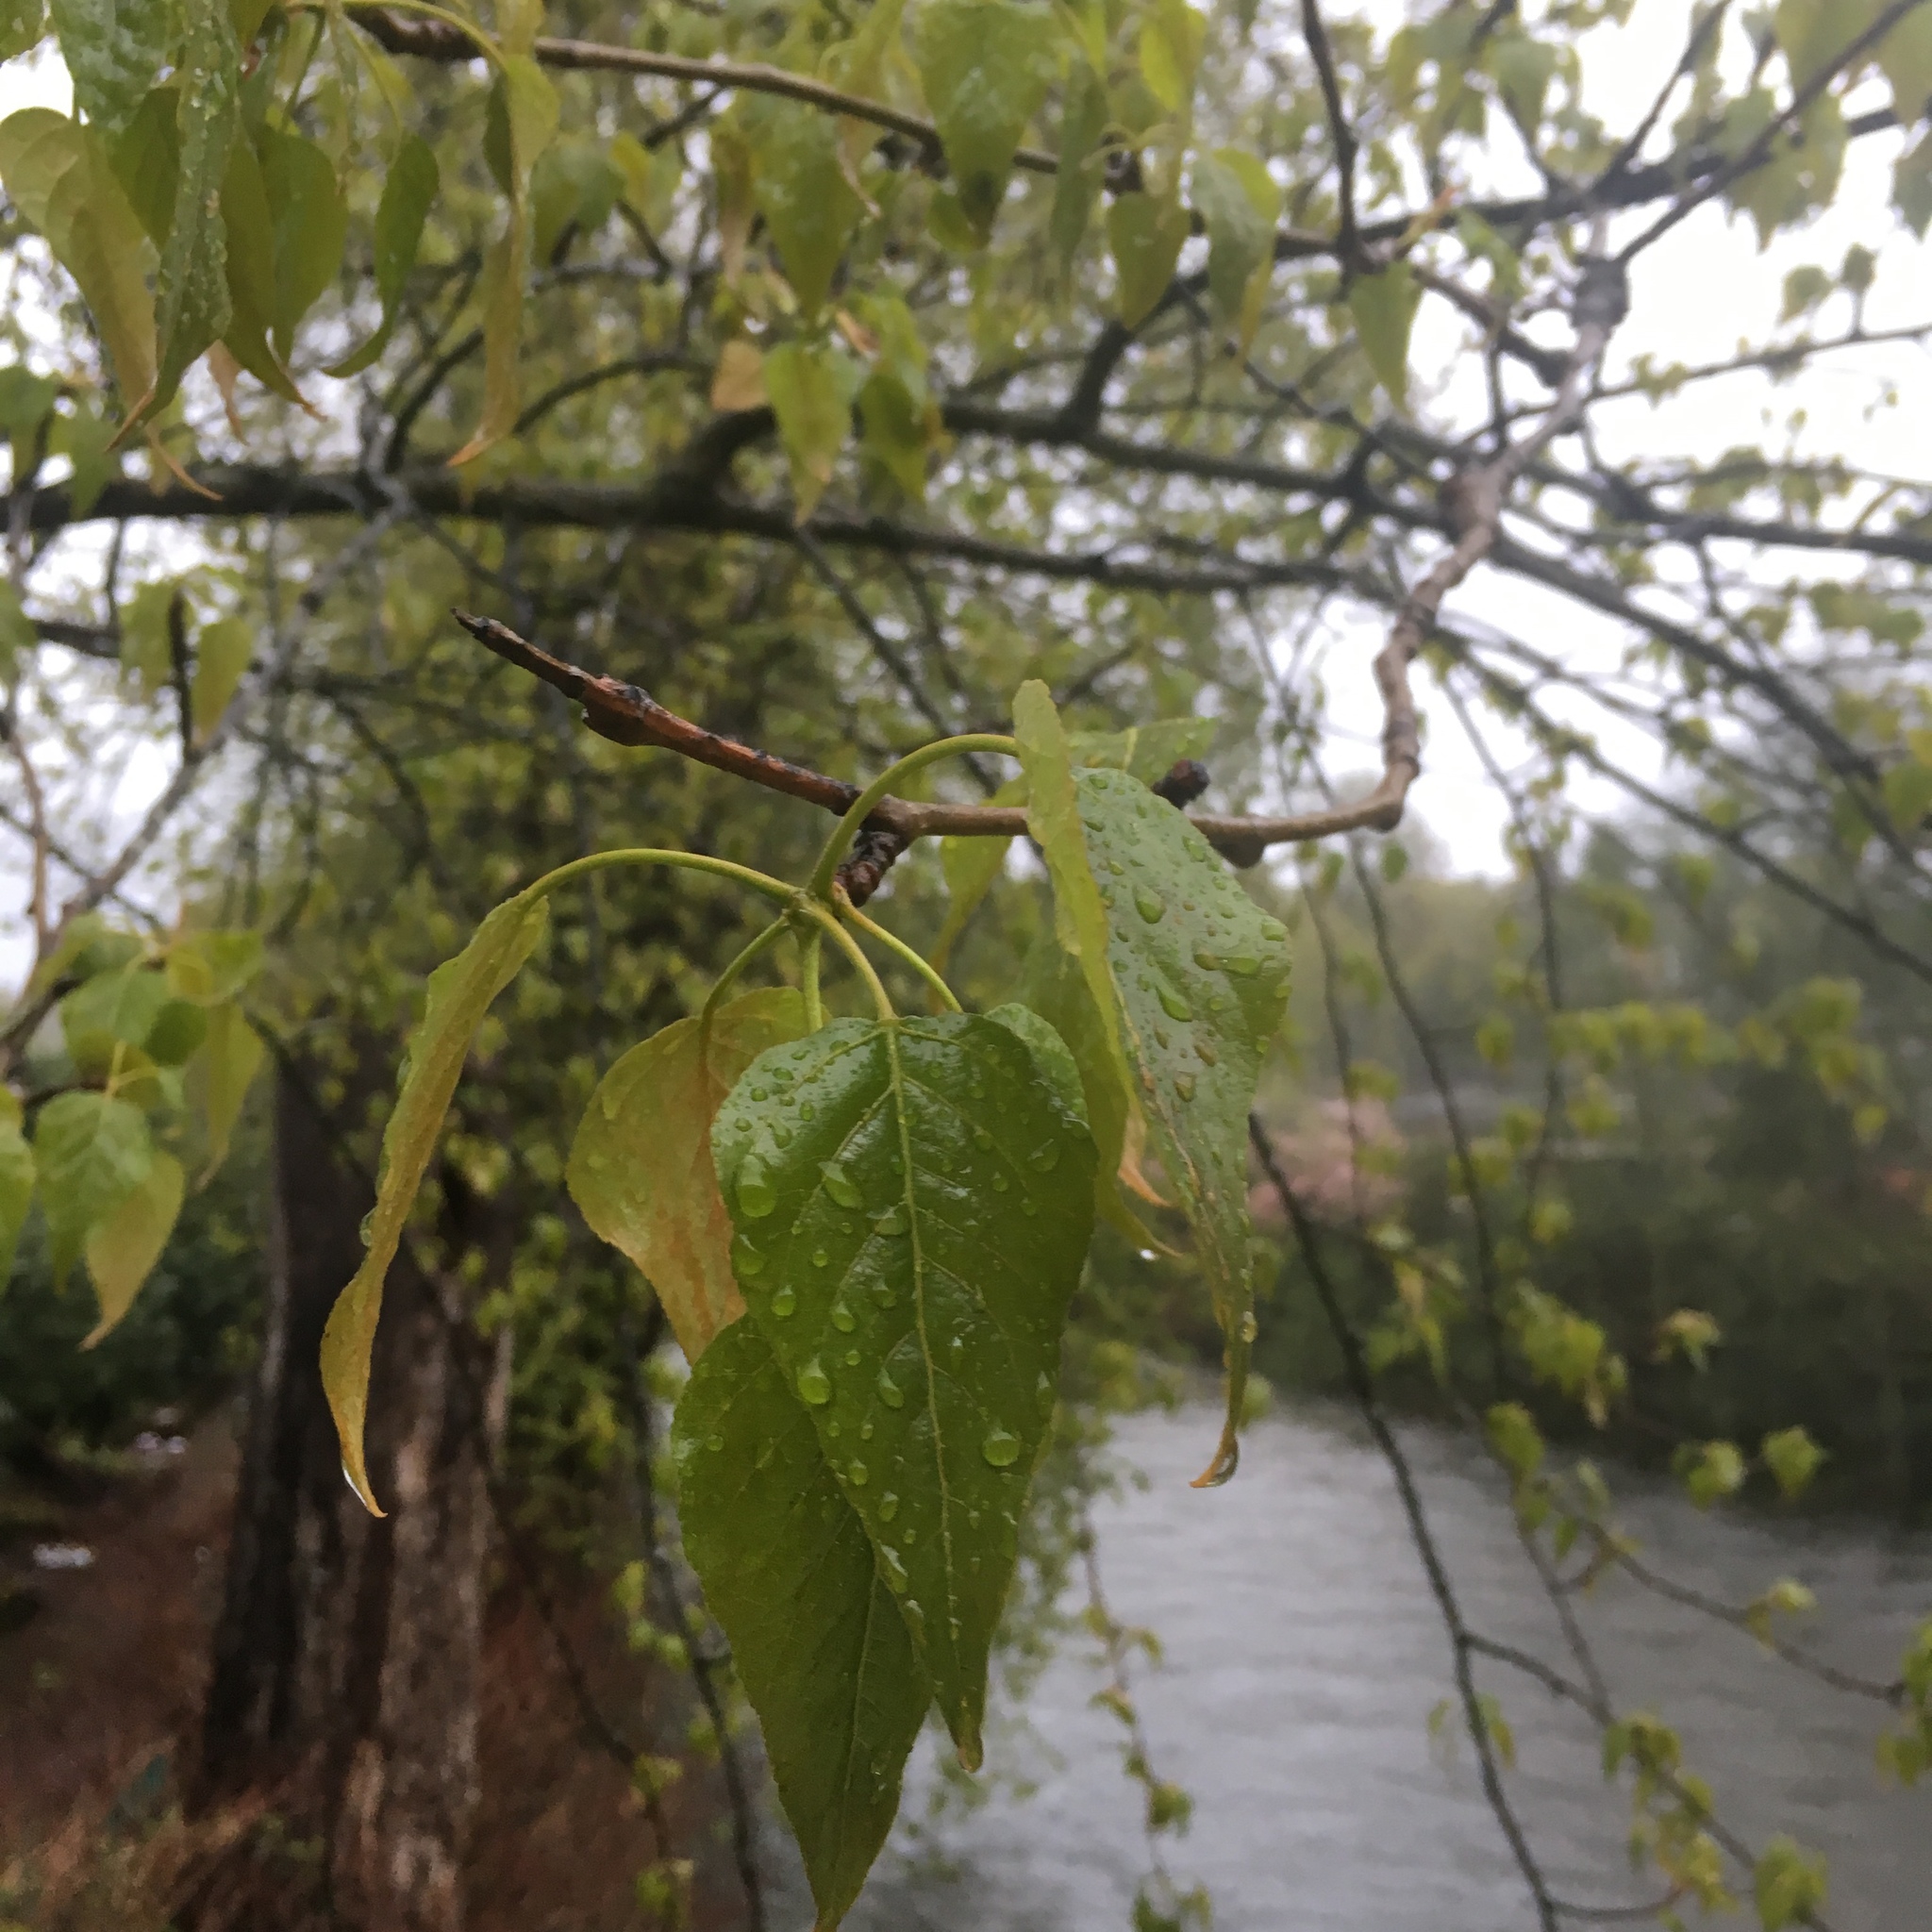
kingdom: Plantae
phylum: Tracheophyta
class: Magnoliopsida
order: Malpighiales
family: Salicaceae
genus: Populus
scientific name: Populus trichocarpa
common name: Black cottonwood
